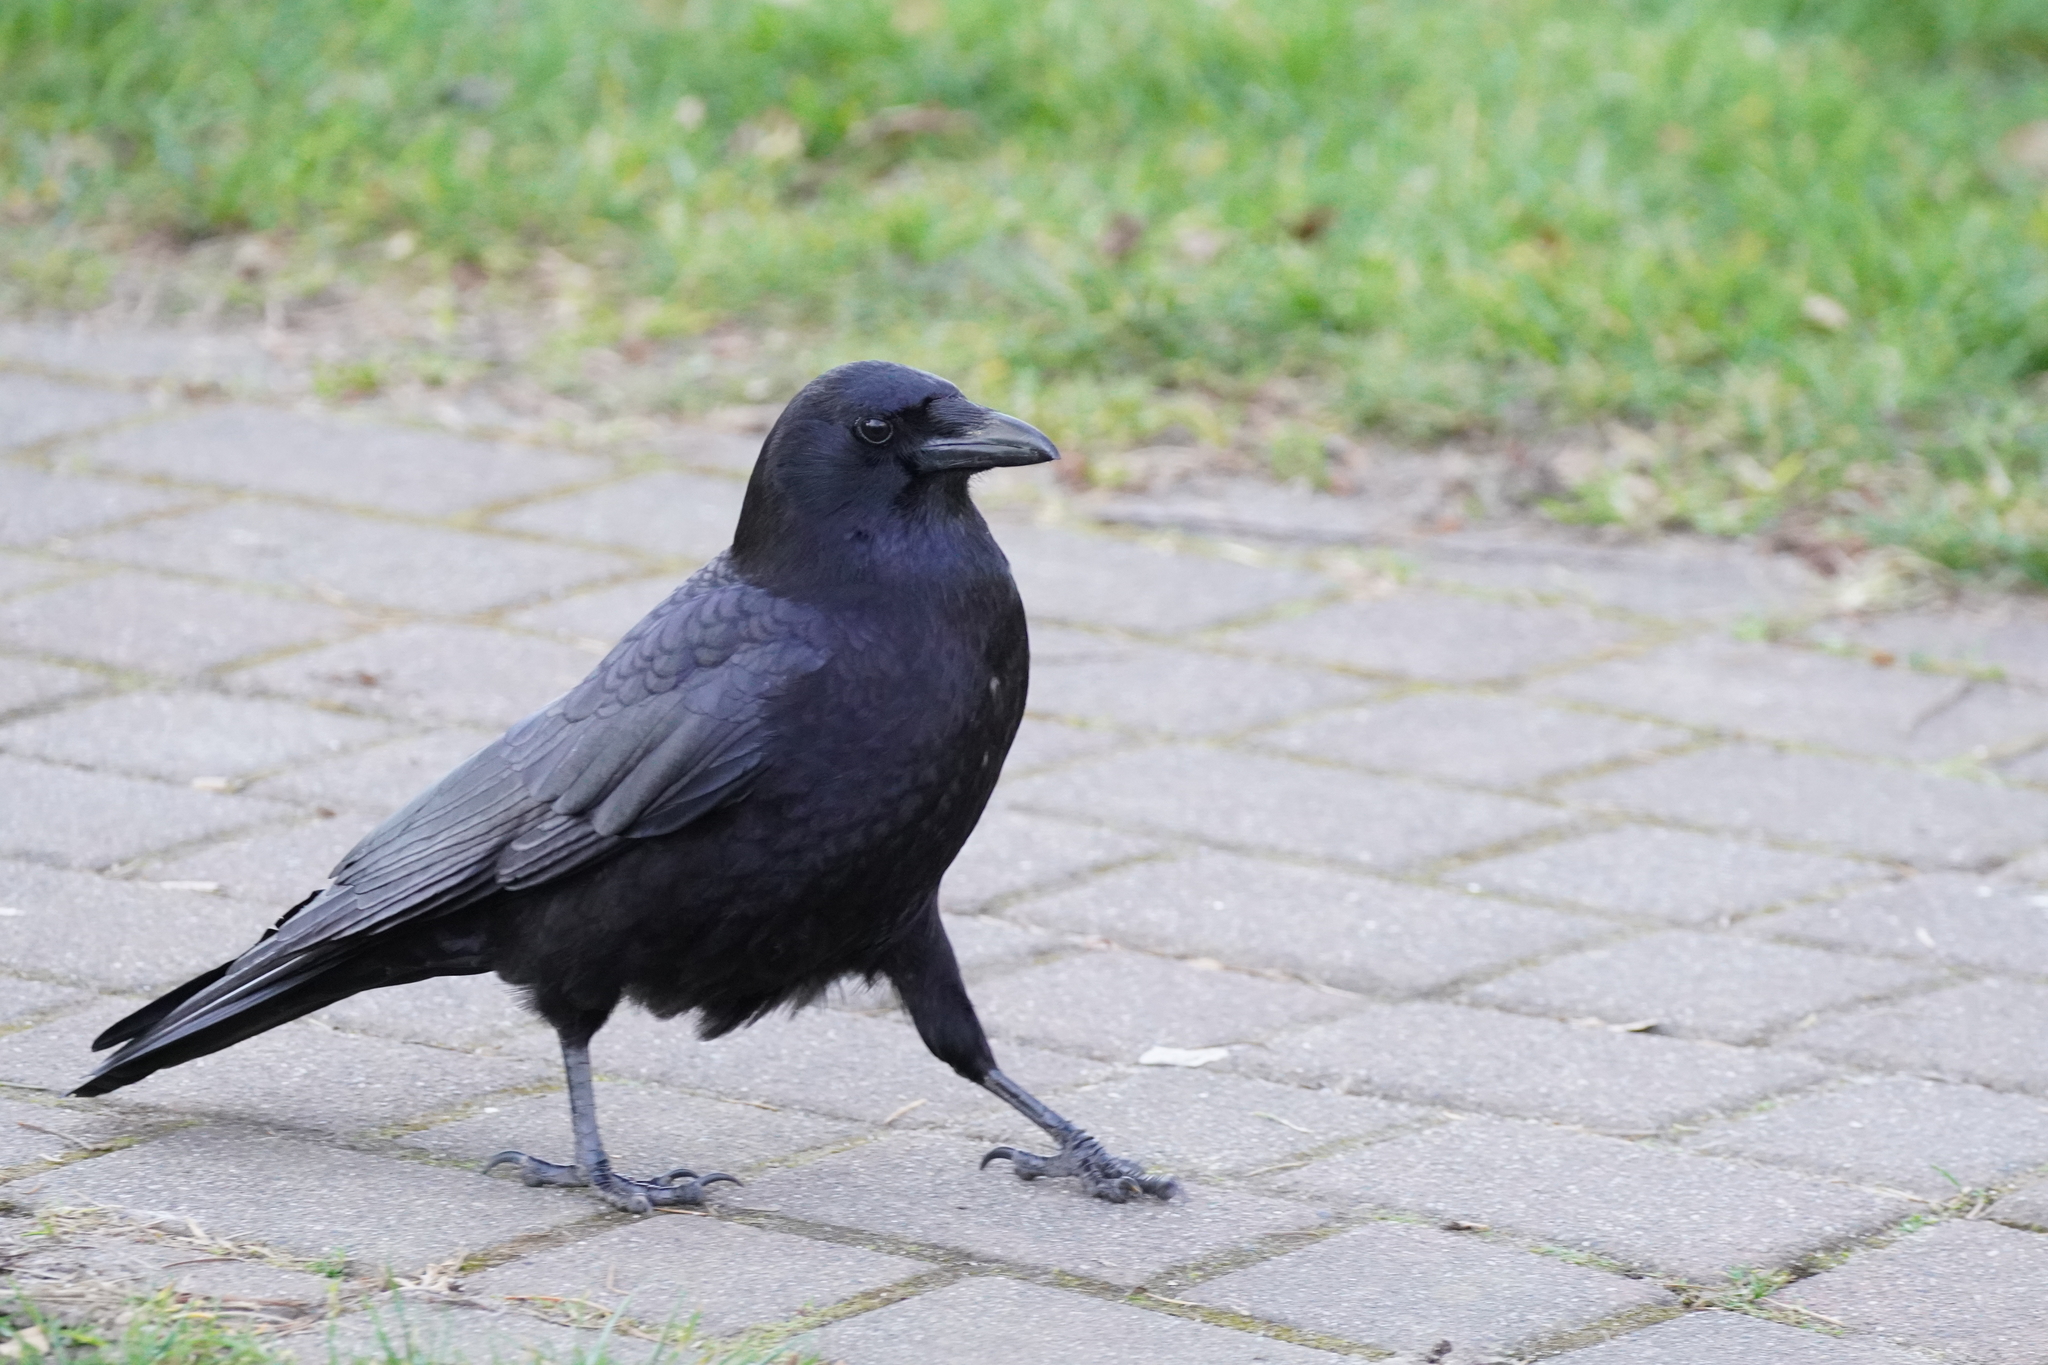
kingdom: Animalia
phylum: Chordata
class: Aves
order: Passeriformes
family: Corvidae
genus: Corvus
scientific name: Corvus brachyrhynchos
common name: American crow
